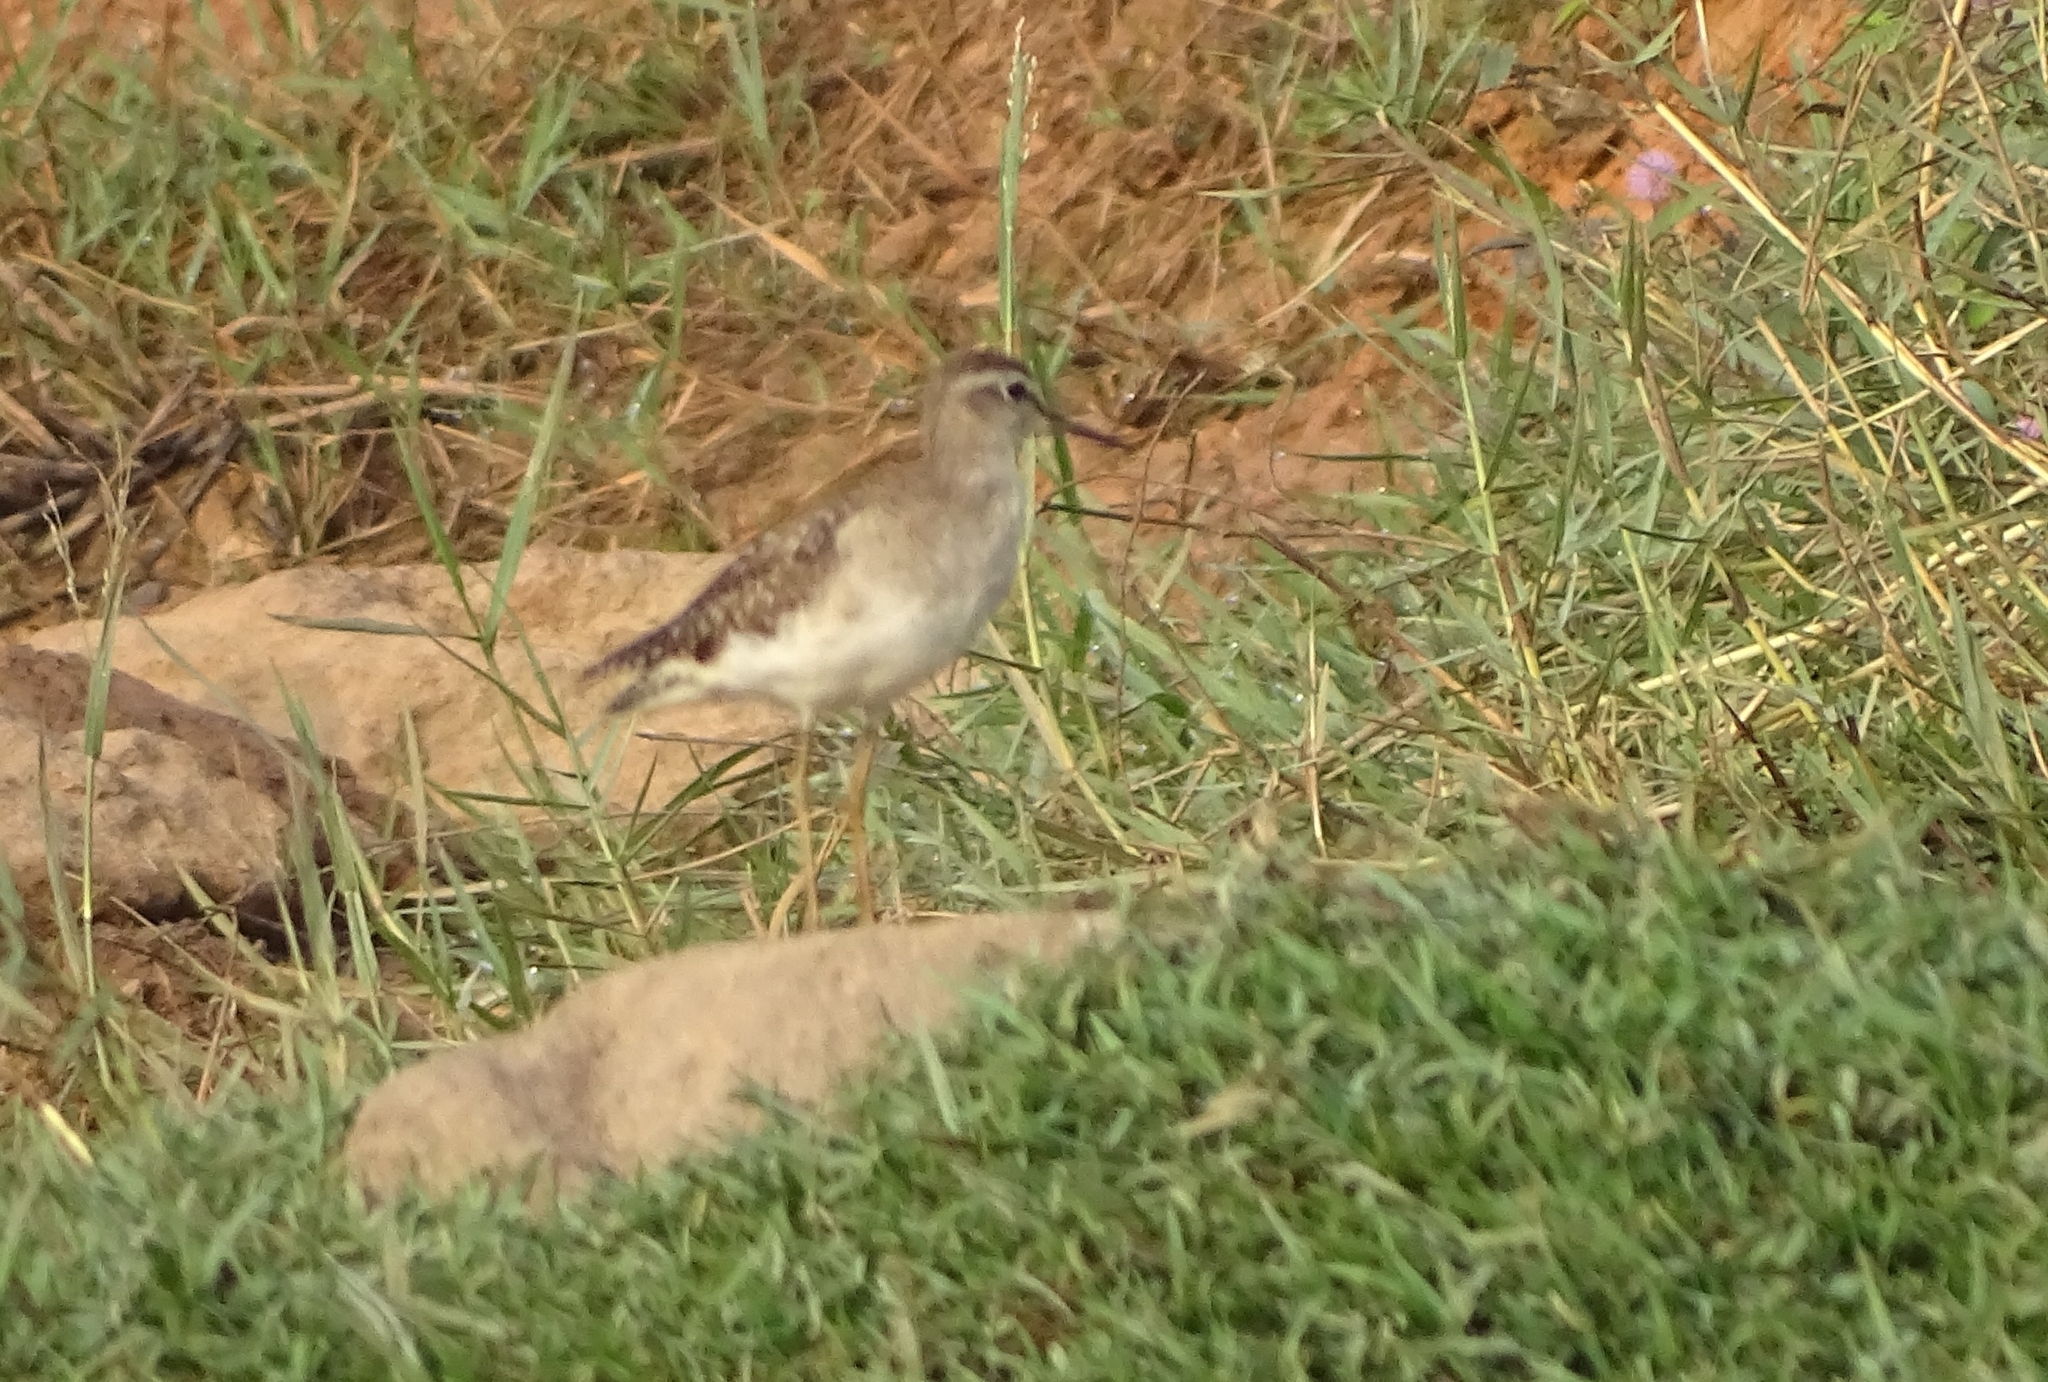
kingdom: Animalia
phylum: Chordata
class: Aves
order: Charadriiformes
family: Scolopacidae
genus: Tringa
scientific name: Tringa glareola
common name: Wood sandpiper
